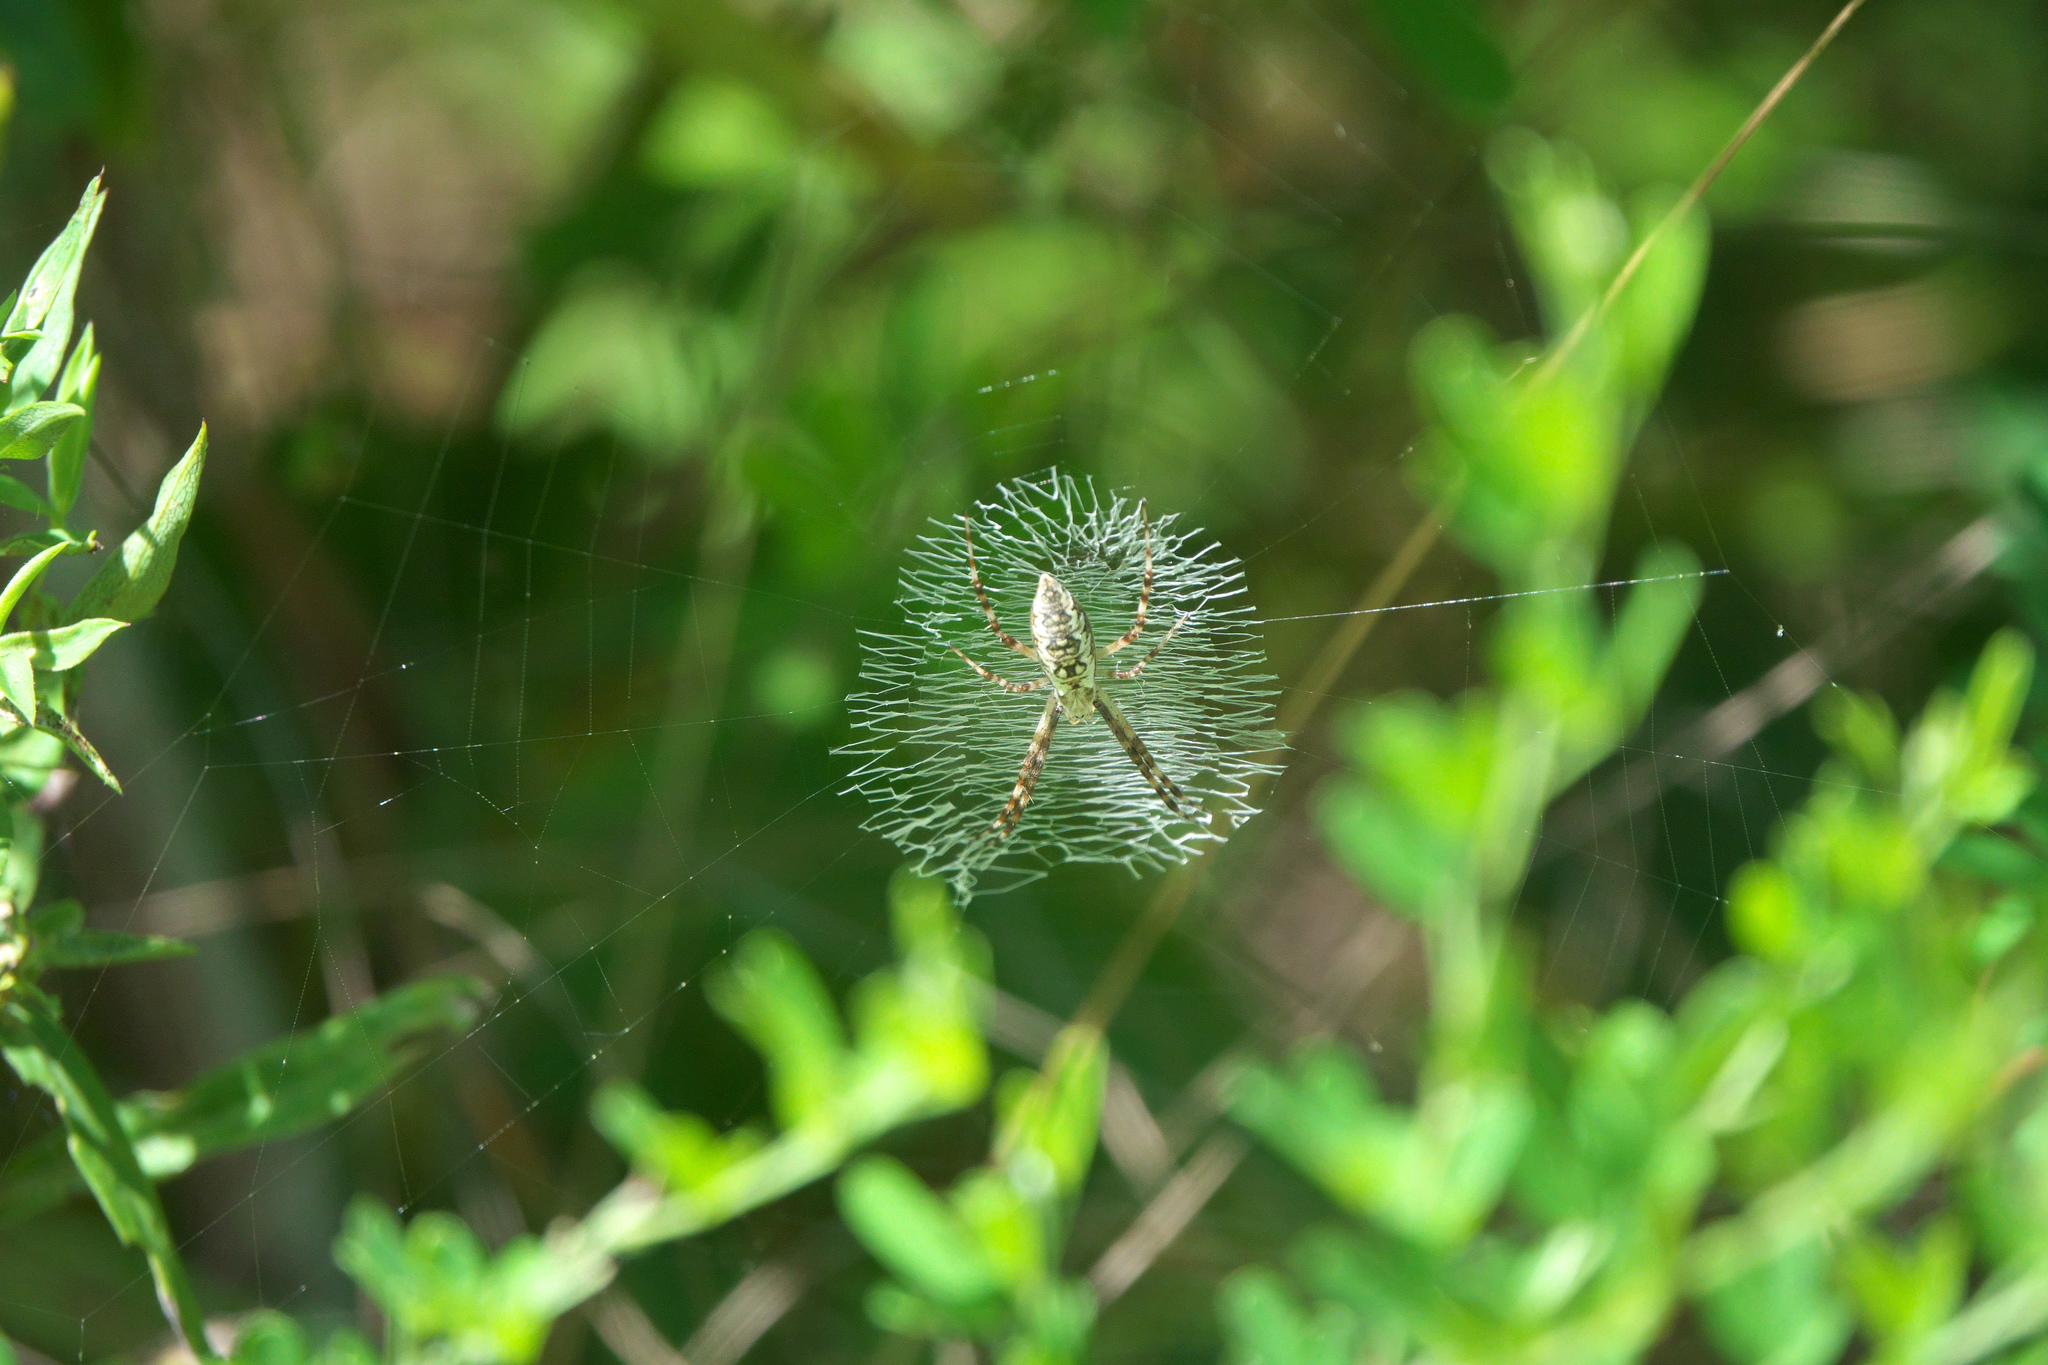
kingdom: Animalia
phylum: Arthropoda
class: Arachnida
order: Araneae
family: Araneidae
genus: Argiope
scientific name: Argiope aurantia
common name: Orb weavers
